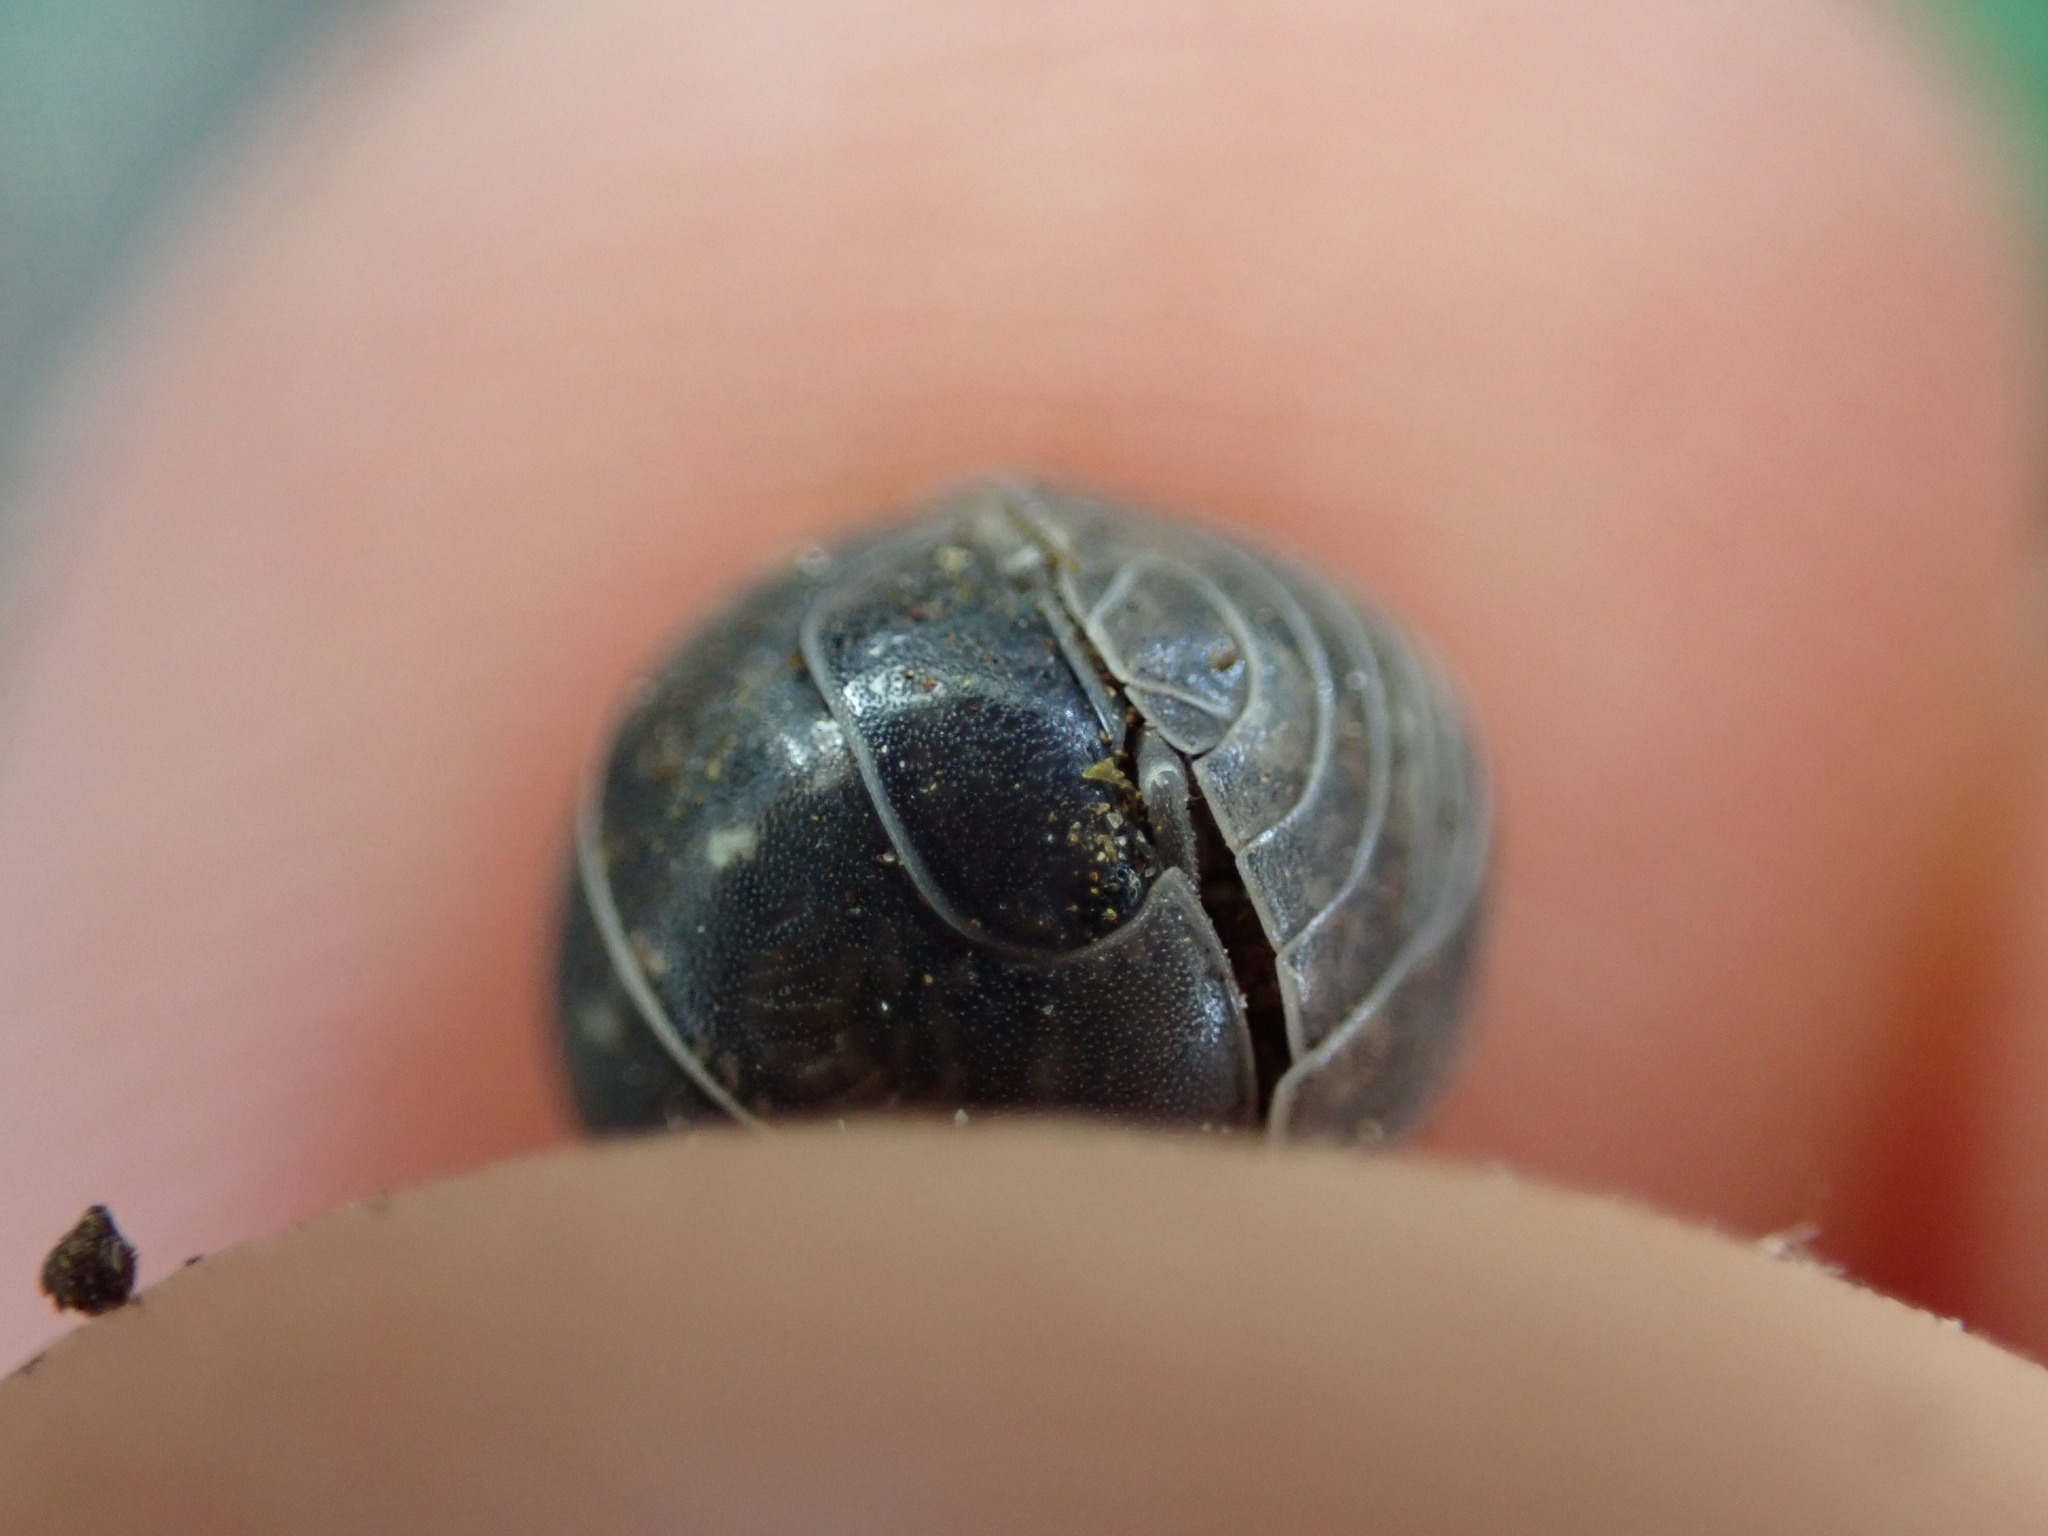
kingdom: Animalia
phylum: Arthropoda
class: Malacostraca
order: Isopoda
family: Armadillidiidae
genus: Armadillidium
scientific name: Armadillidium vulgare
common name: Common pill woodlouse
